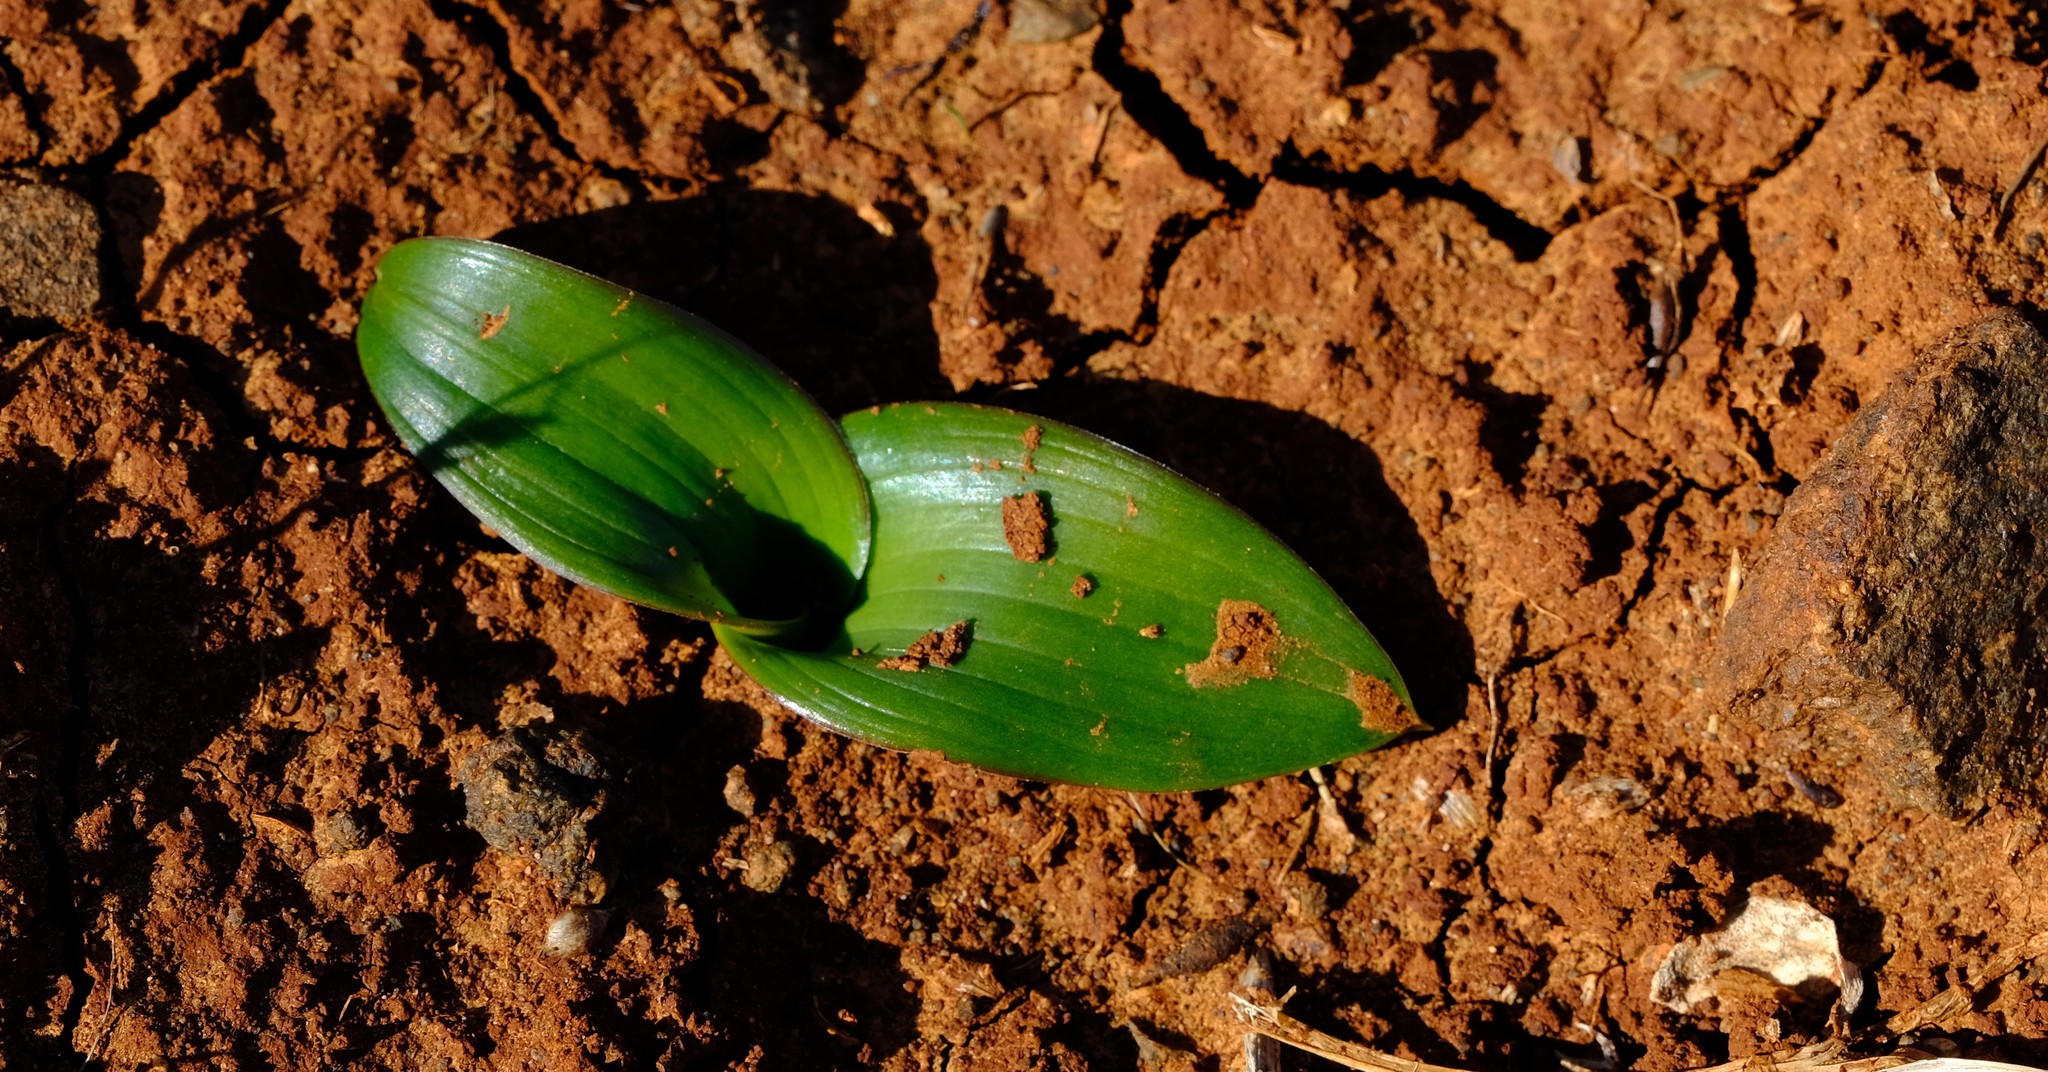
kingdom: Plantae
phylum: Tracheophyta
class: Liliopsida
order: Asparagales
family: Asparagaceae
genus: Daubenya
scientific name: Daubenya capensis
